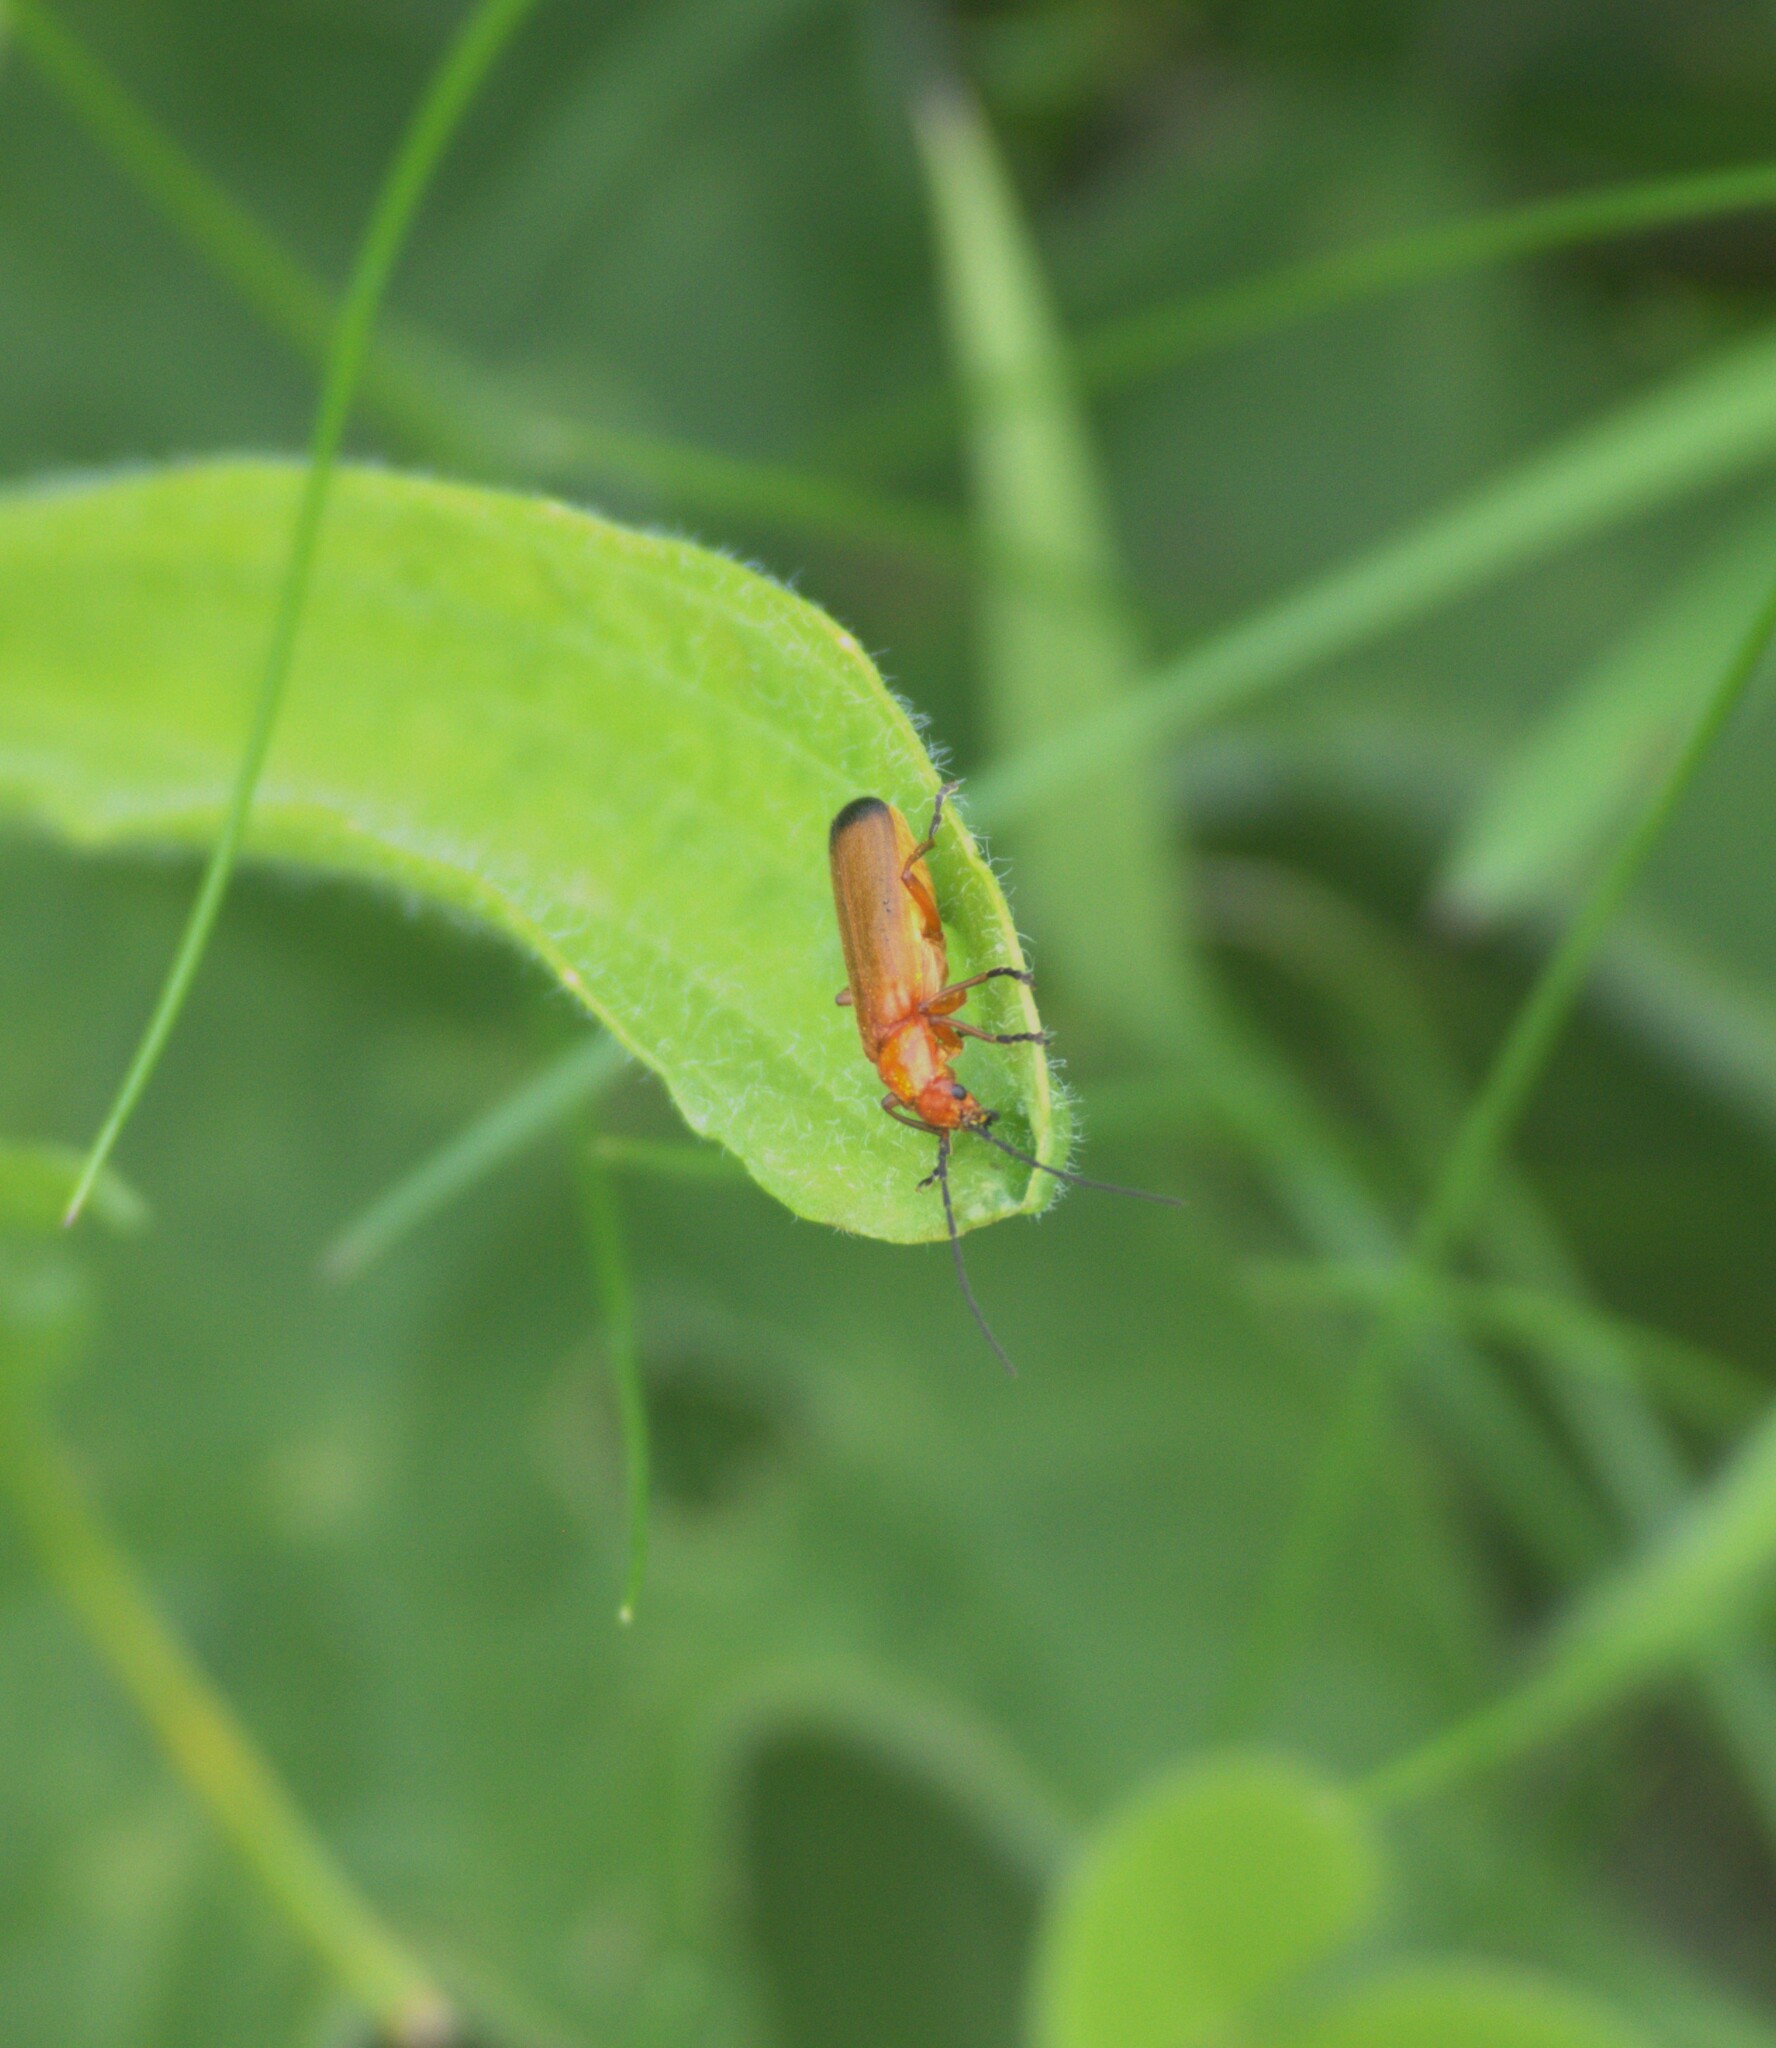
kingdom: Animalia
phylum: Arthropoda
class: Insecta
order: Coleoptera
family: Cantharidae
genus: Rhagonycha
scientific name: Rhagonycha fulva
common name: Common red soldier beetle
